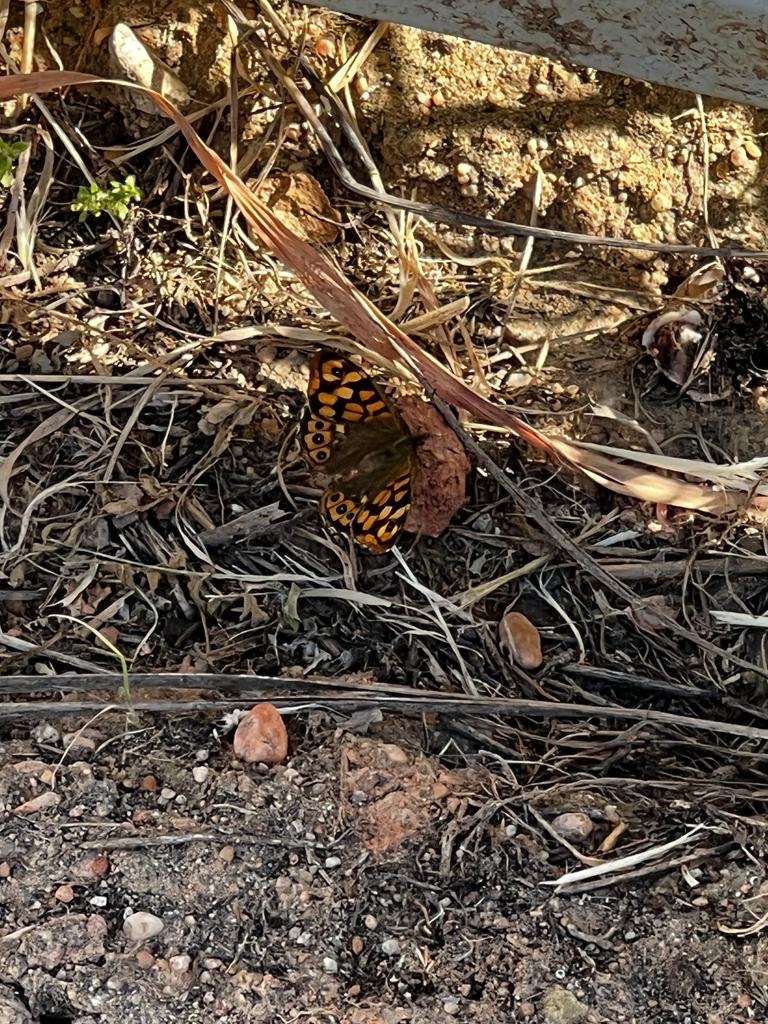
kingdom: Animalia
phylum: Arthropoda
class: Insecta
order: Lepidoptera
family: Nymphalidae
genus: Pararge
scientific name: Pararge aegeria
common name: Speckled wood
